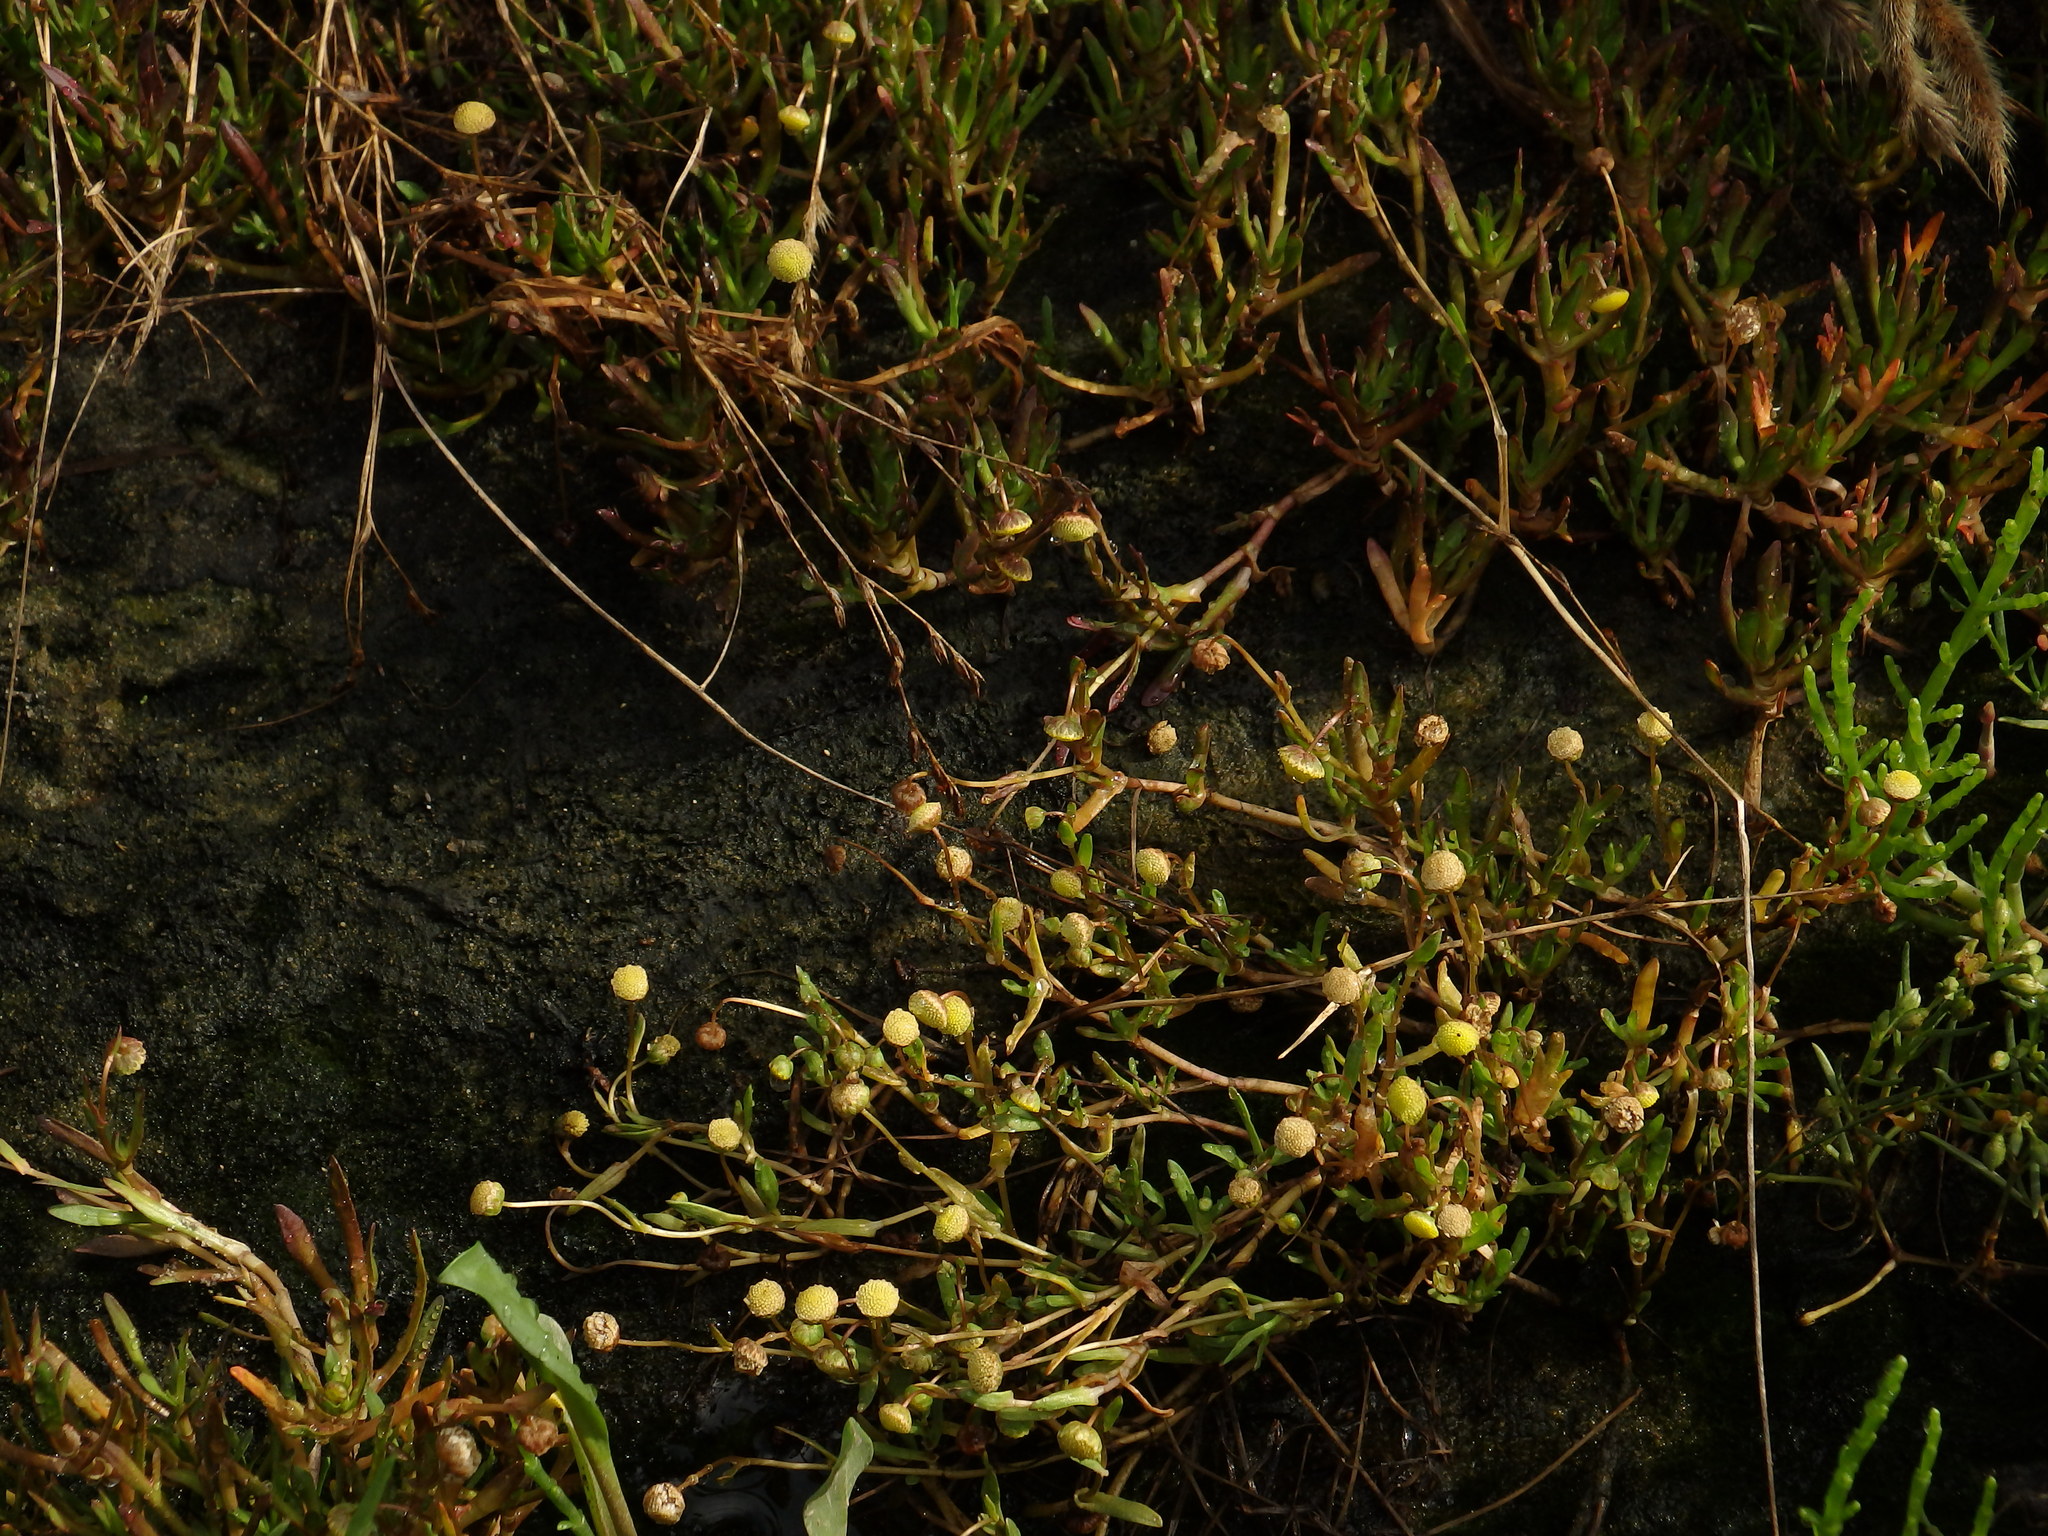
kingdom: Plantae
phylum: Tracheophyta
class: Magnoliopsida
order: Asterales
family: Asteraceae
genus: Cotula
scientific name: Cotula coronopifolia
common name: Buttonweed
